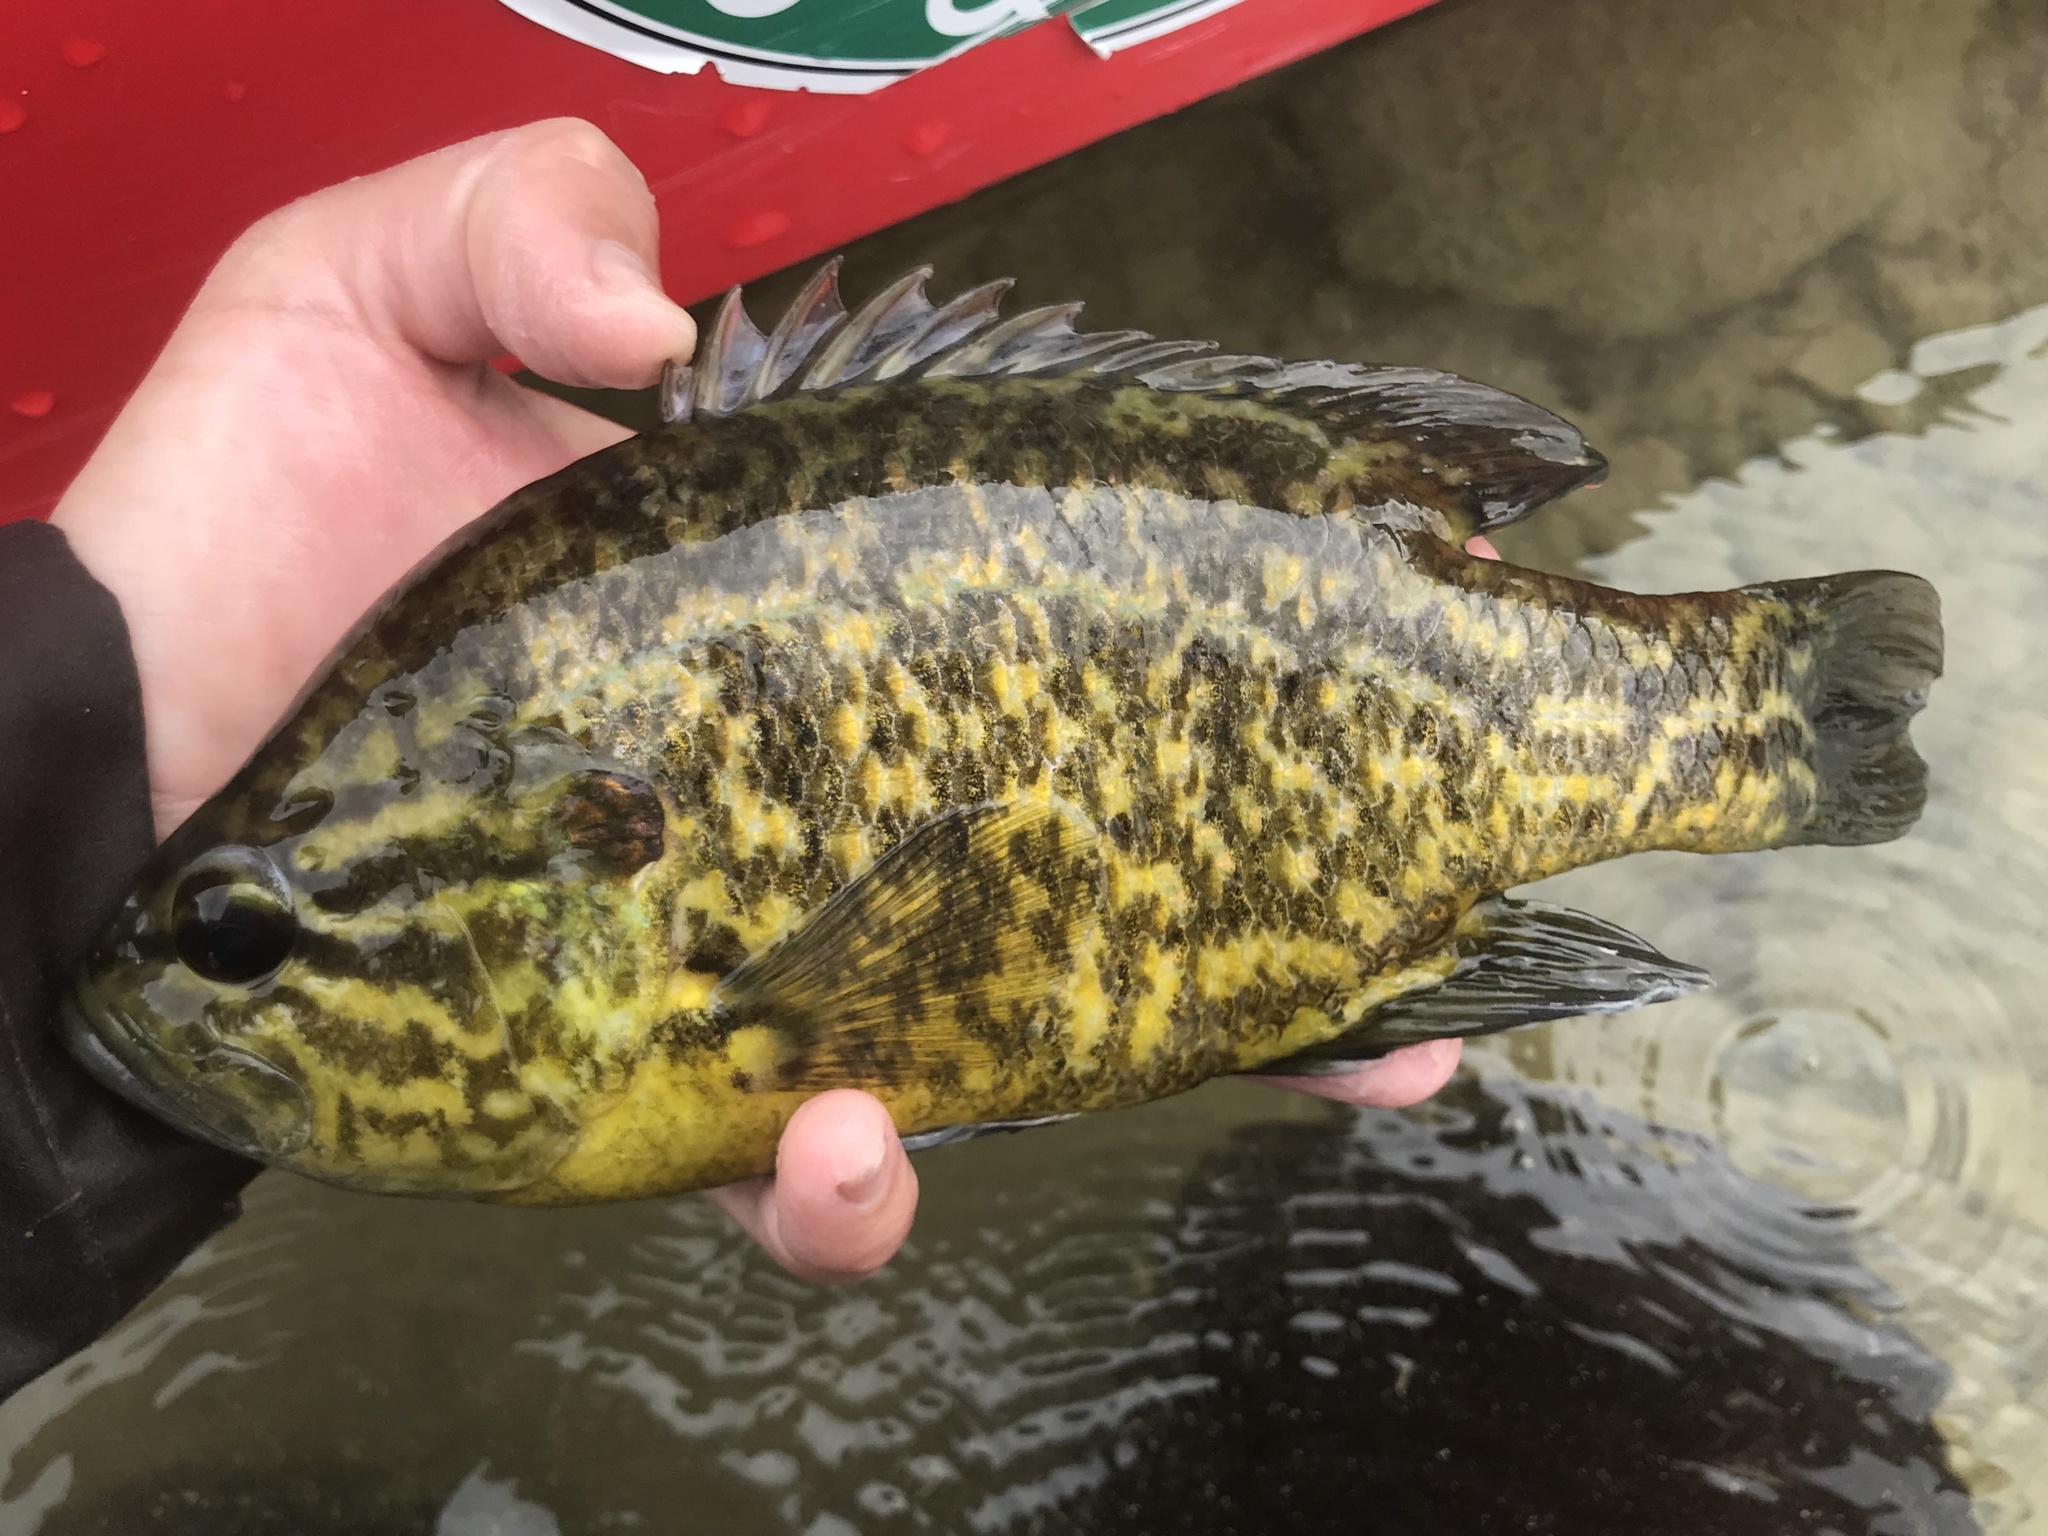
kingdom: Animalia
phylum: Chordata
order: Perciformes
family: Centrarchidae
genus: Lepomis
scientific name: Lepomis gulosus
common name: Warmouth
